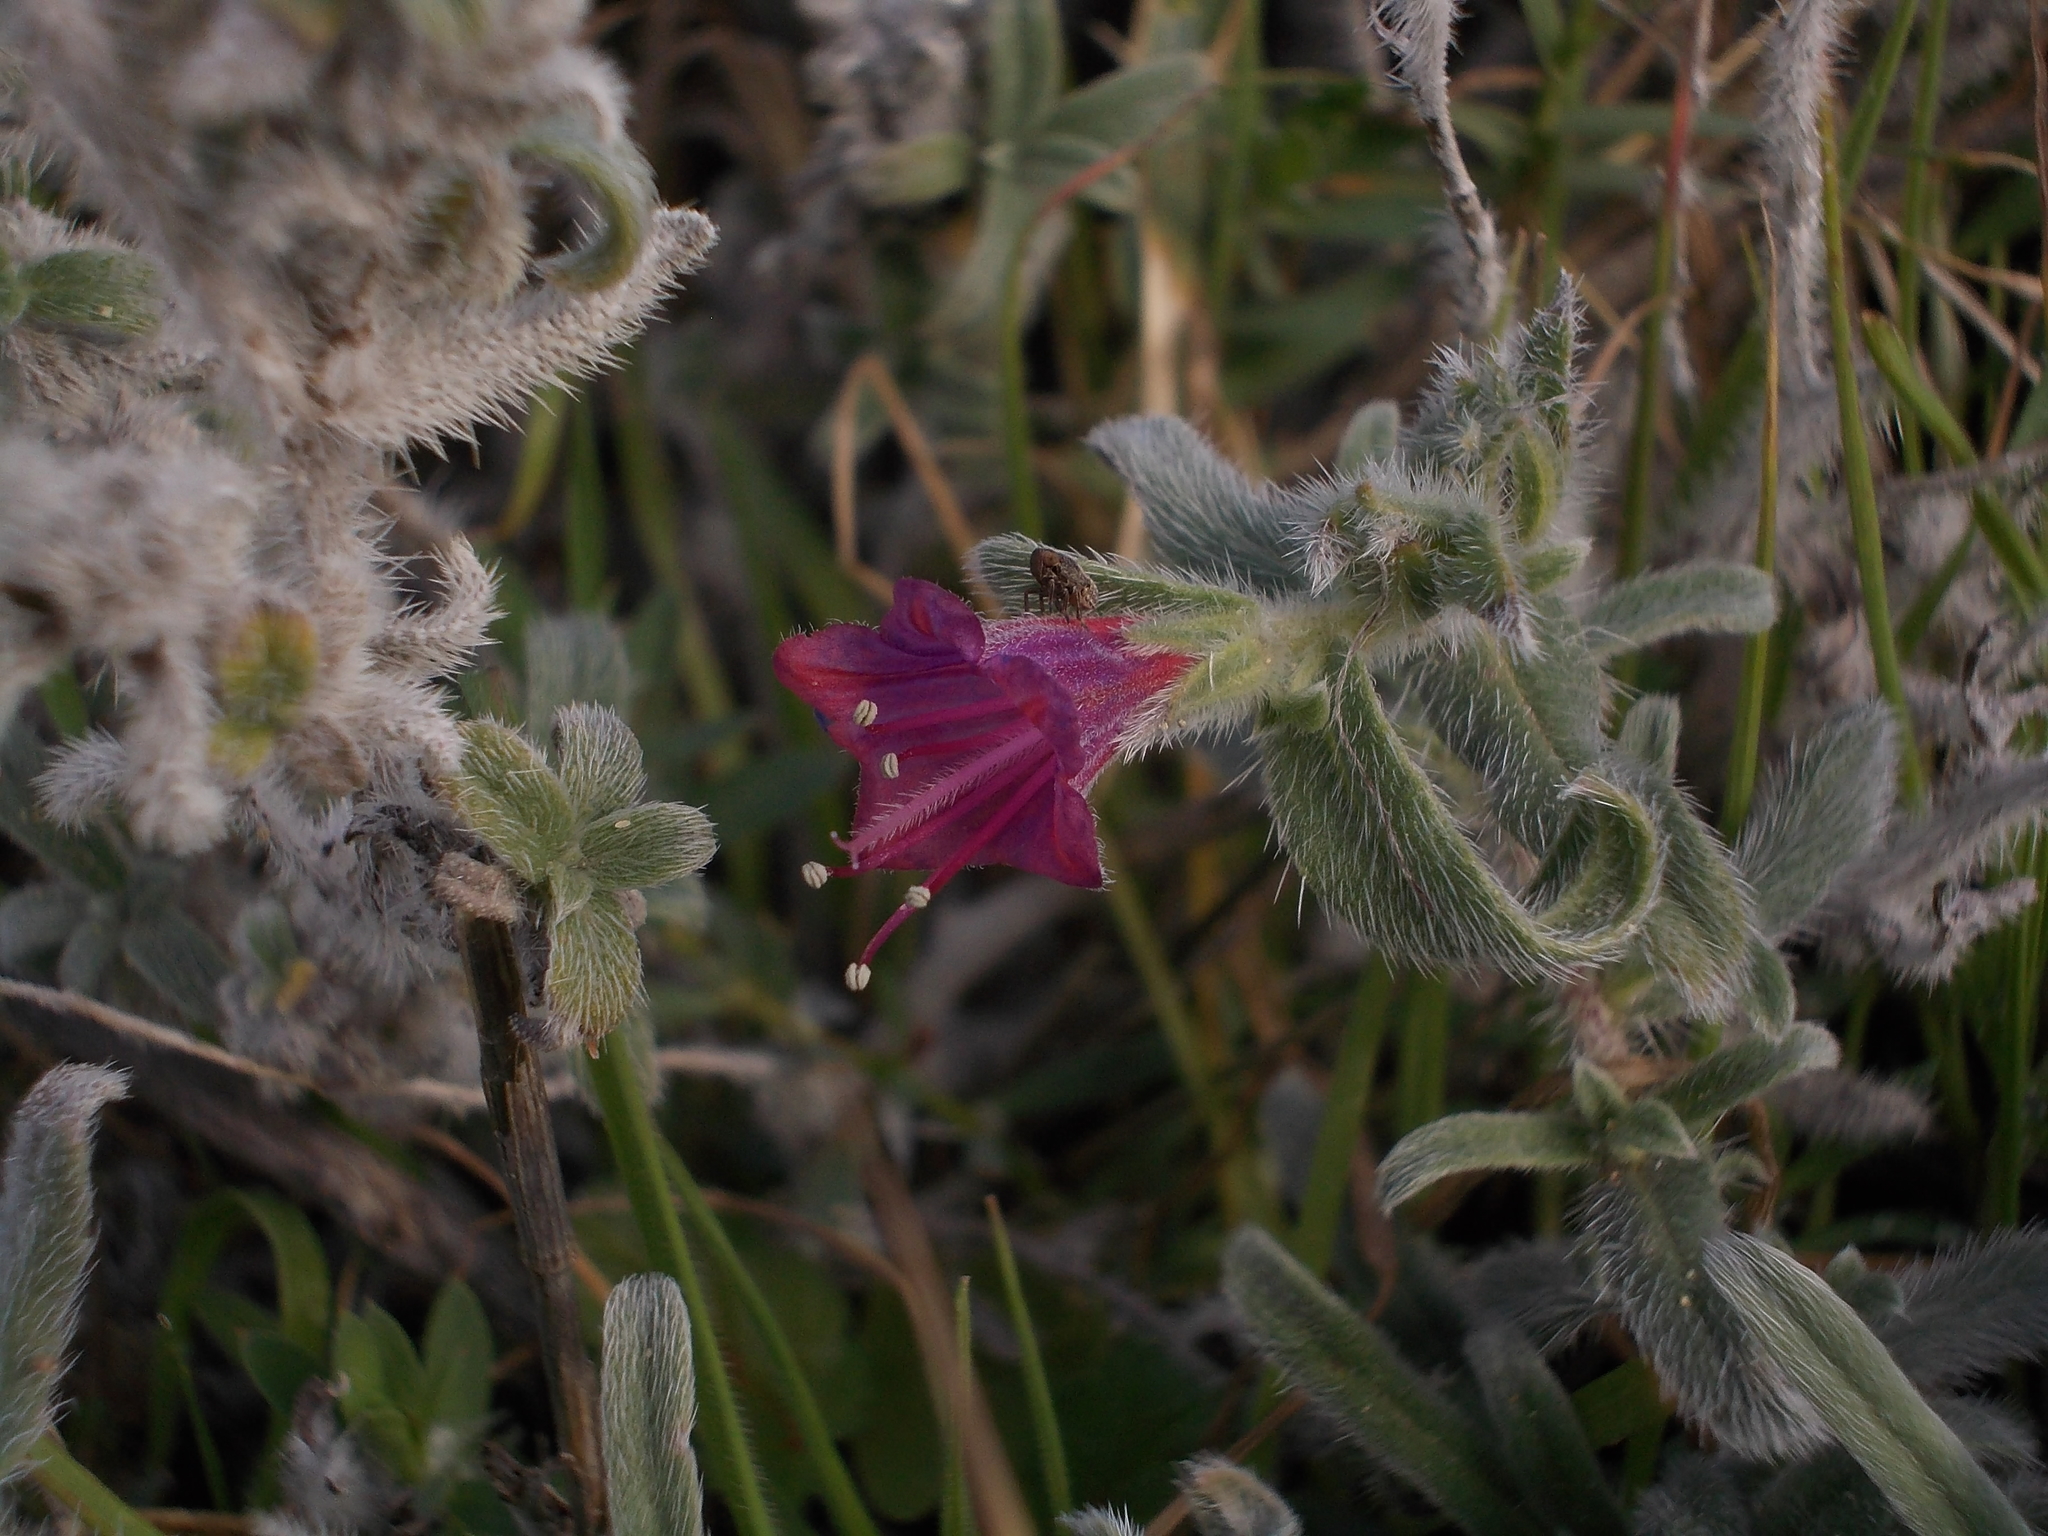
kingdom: Plantae
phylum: Tracheophyta
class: Magnoliopsida
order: Boraginales
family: Boraginaceae
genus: Echium
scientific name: Echium angustifolium
